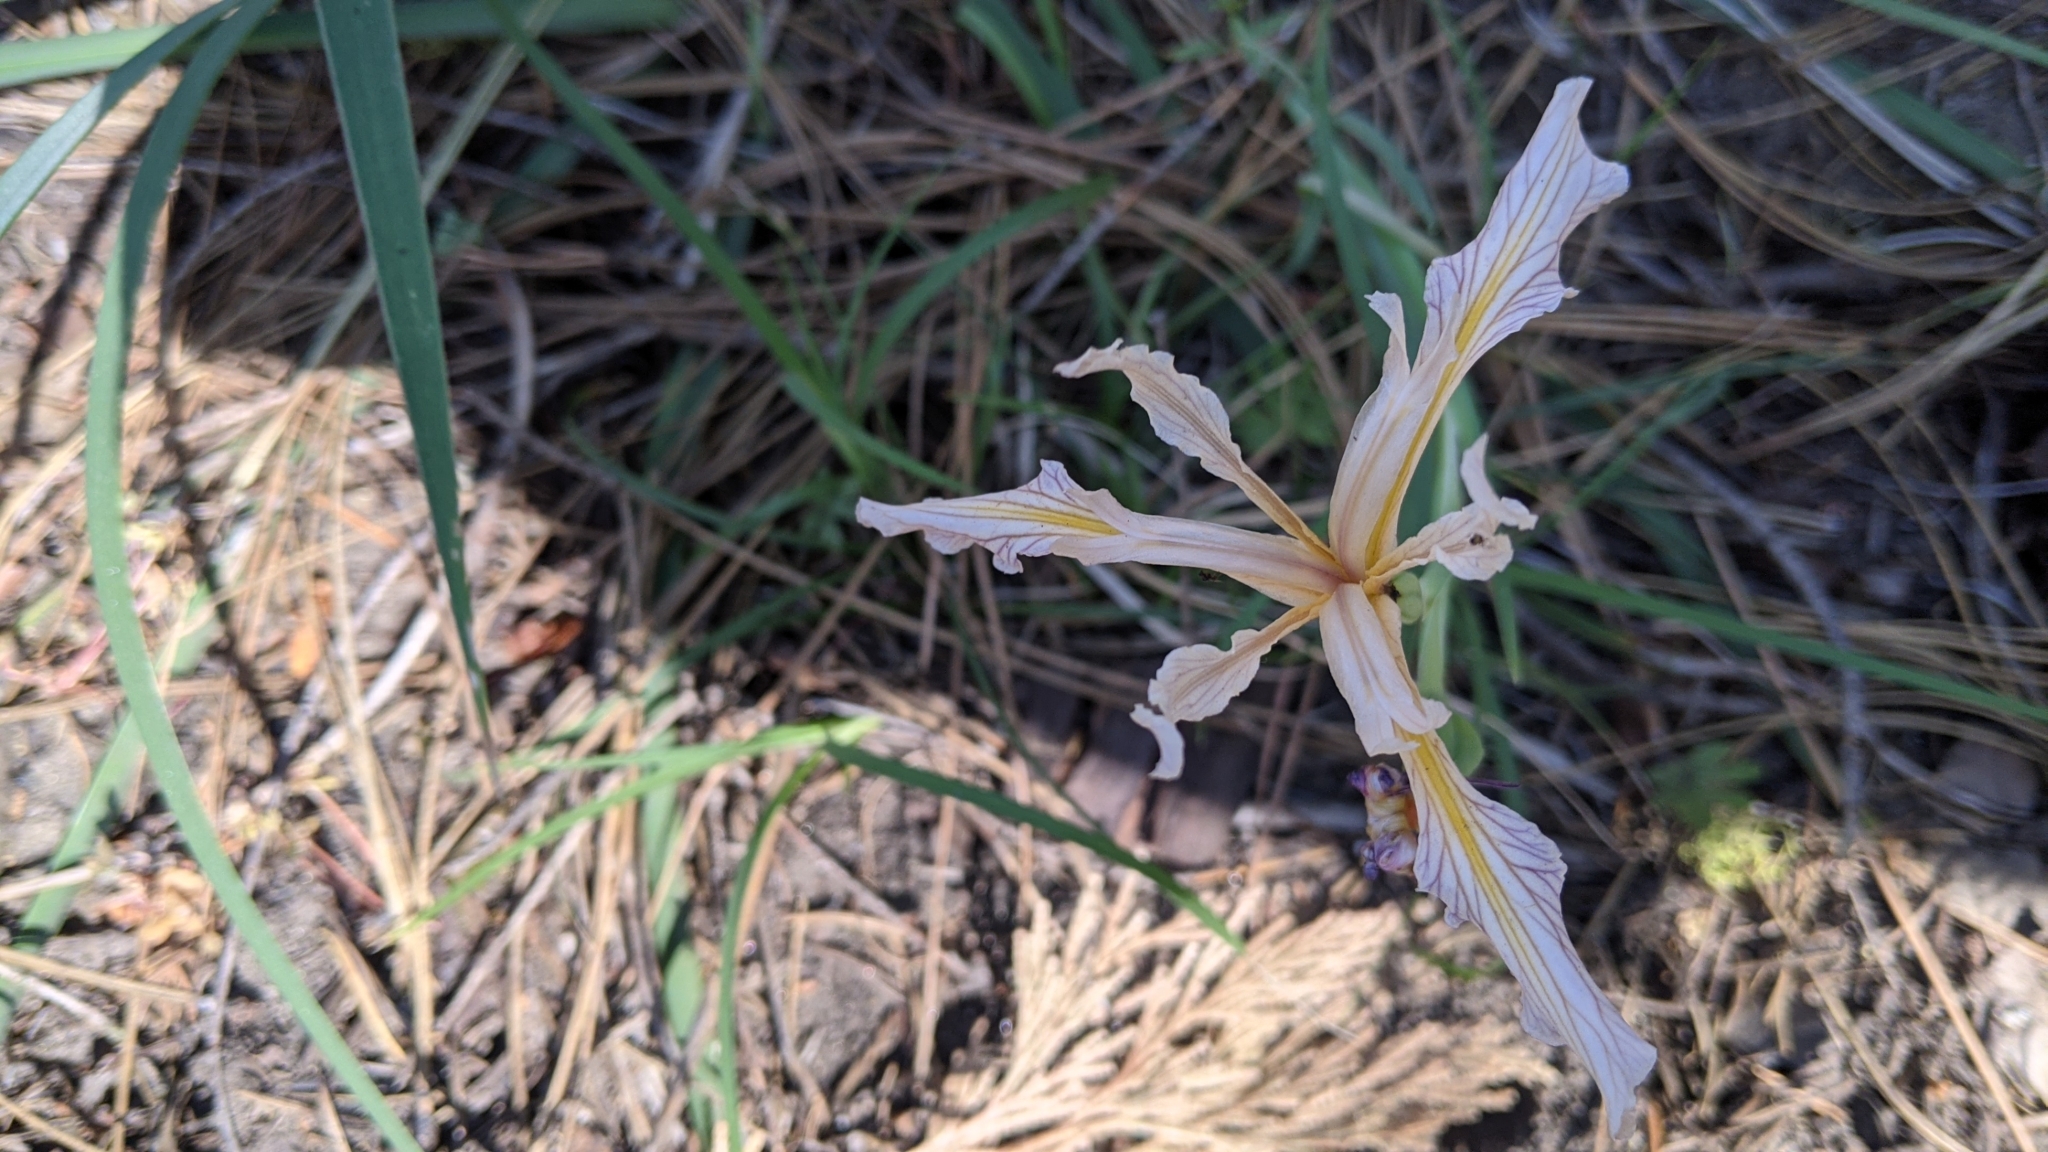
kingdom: Plantae
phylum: Tracheophyta
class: Liliopsida
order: Asparagales
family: Iridaceae
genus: Iris
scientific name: Iris hartwegii
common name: Sierra iris
